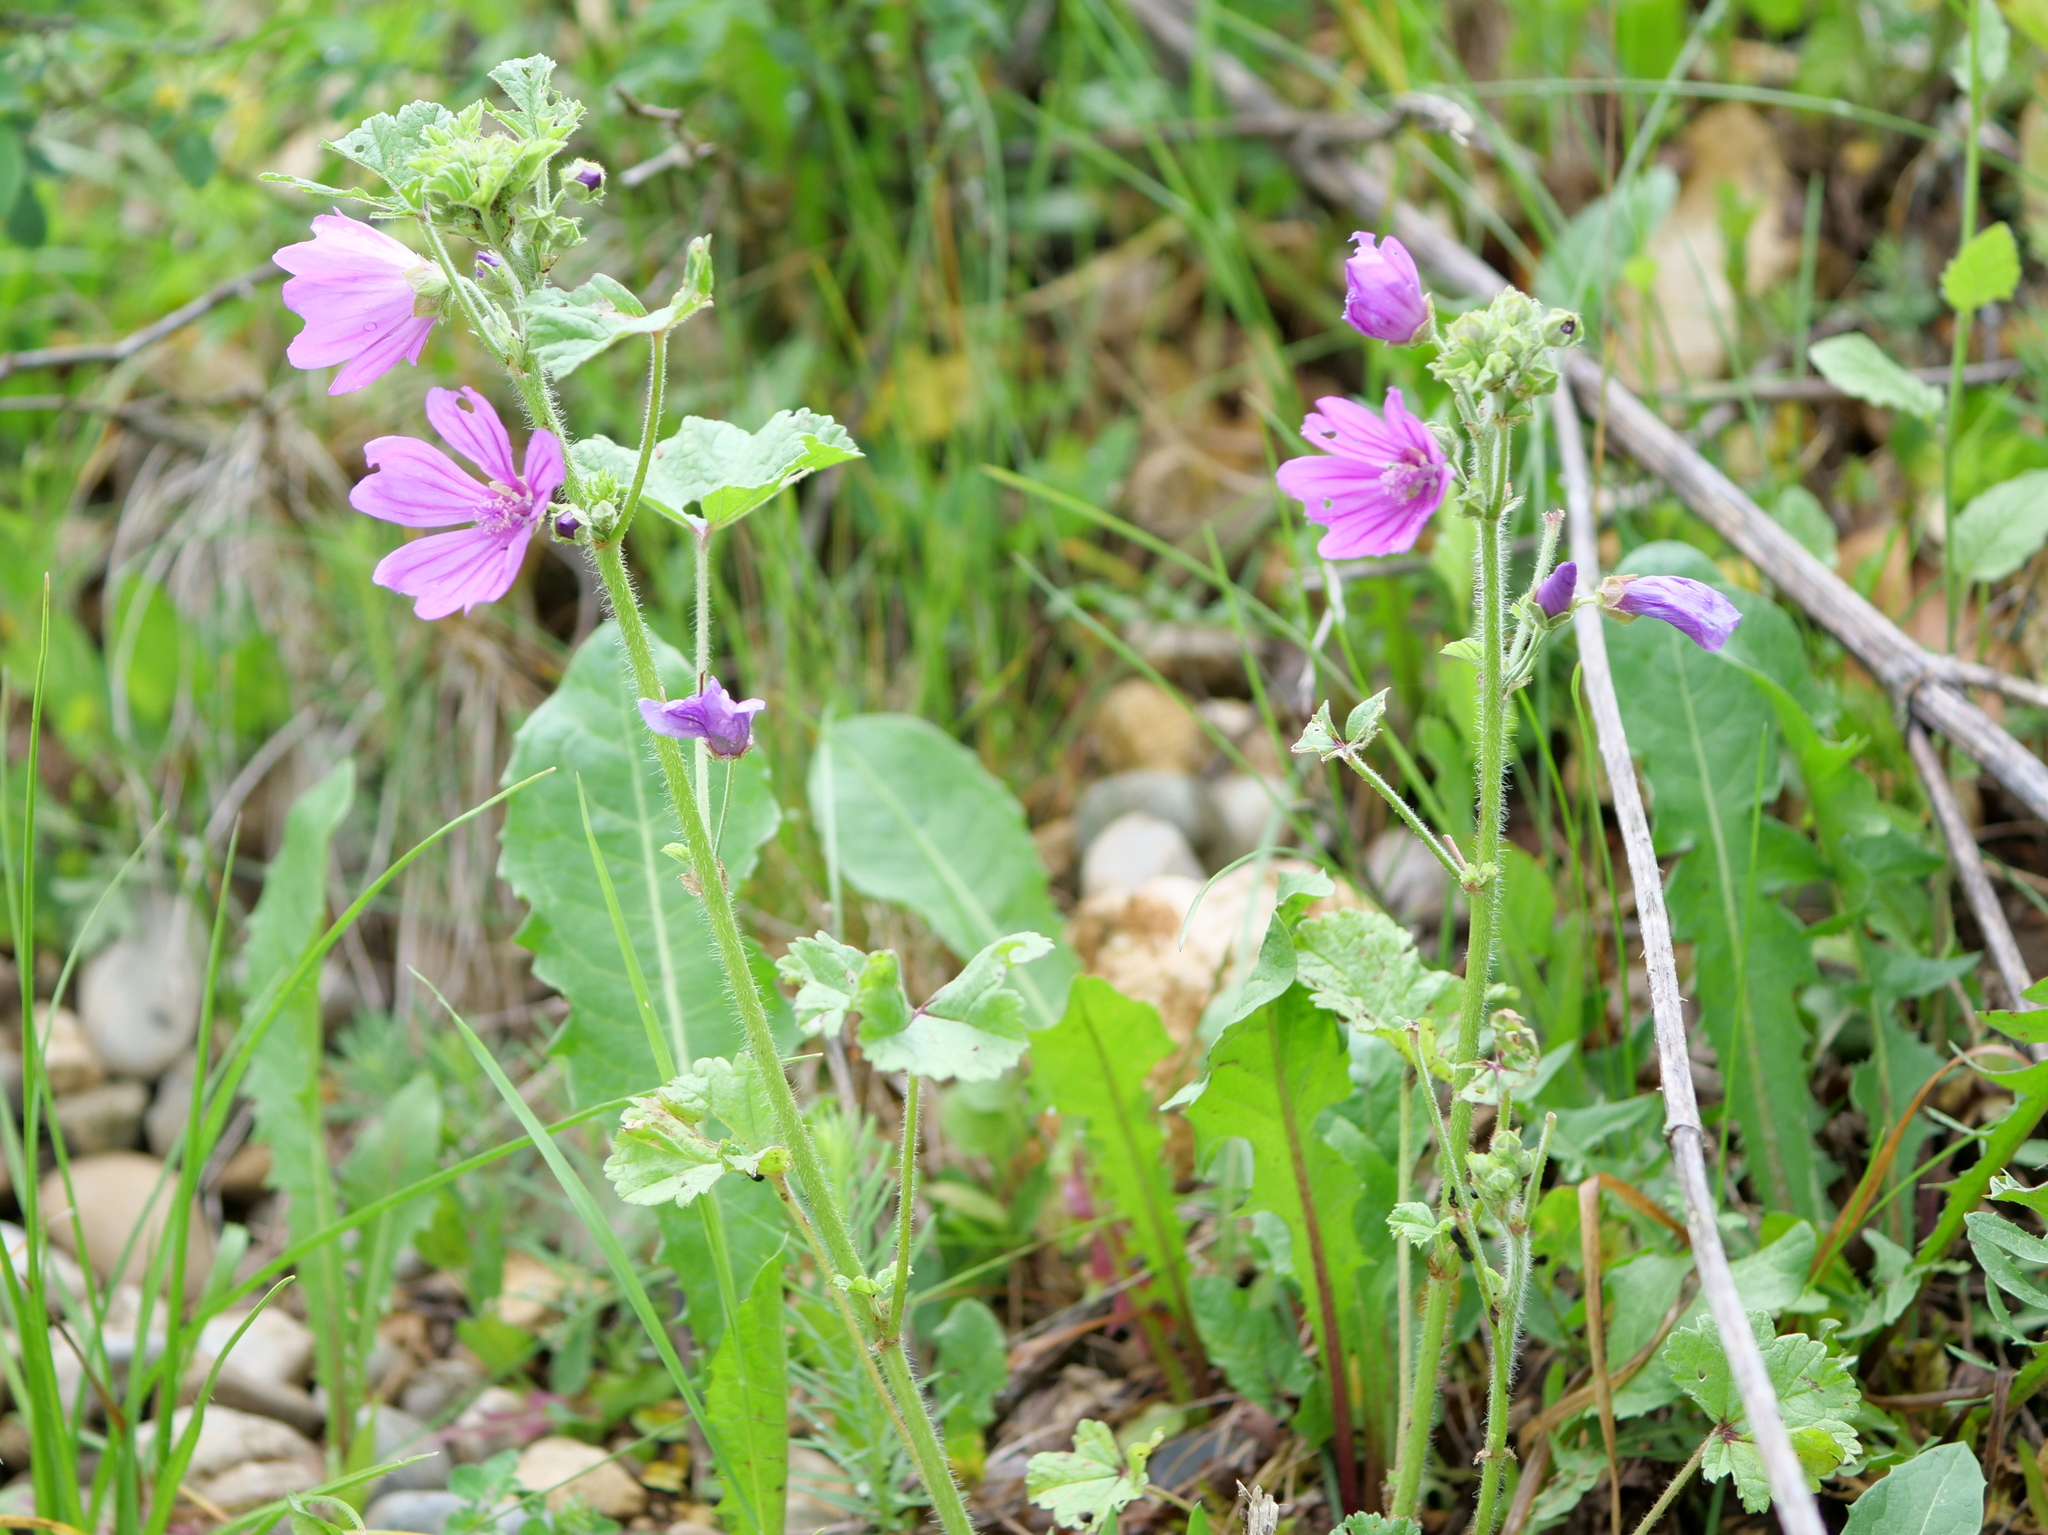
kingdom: Plantae
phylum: Tracheophyta
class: Magnoliopsida
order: Malvales
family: Malvaceae
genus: Malva
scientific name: Malva sylvestris
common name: Common mallow
